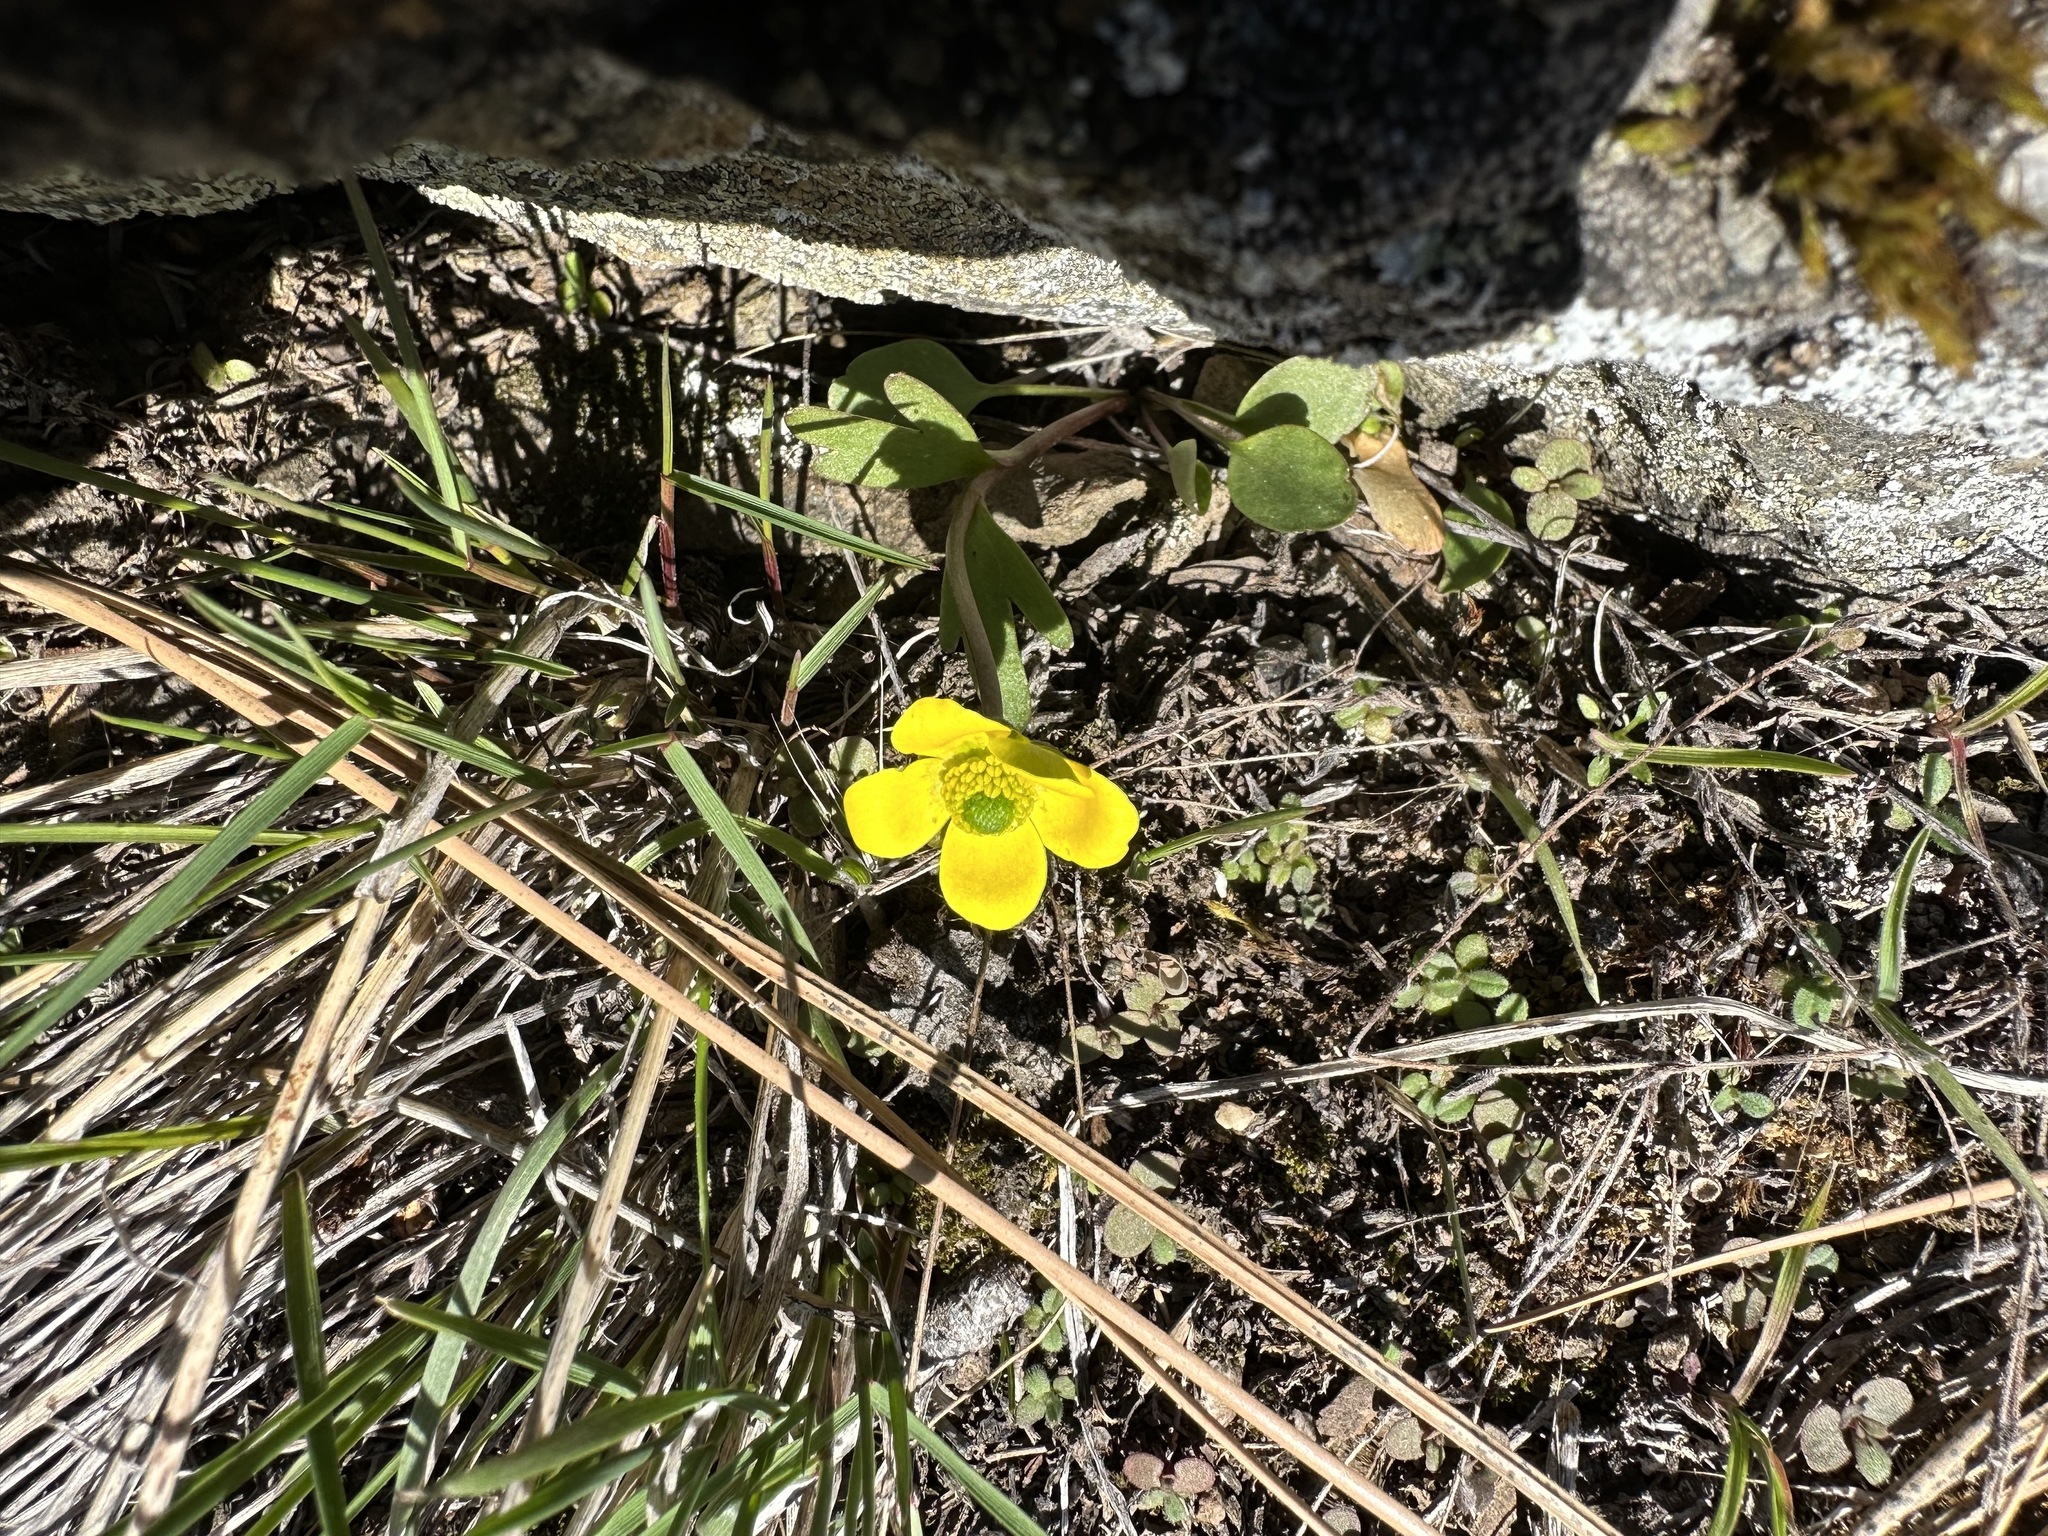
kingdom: Plantae
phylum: Tracheophyta
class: Magnoliopsida
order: Ranunculales
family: Ranunculaceae
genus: Ranunculus
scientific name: Ranunculus glaberrimus
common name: Sagebrush buttercup
